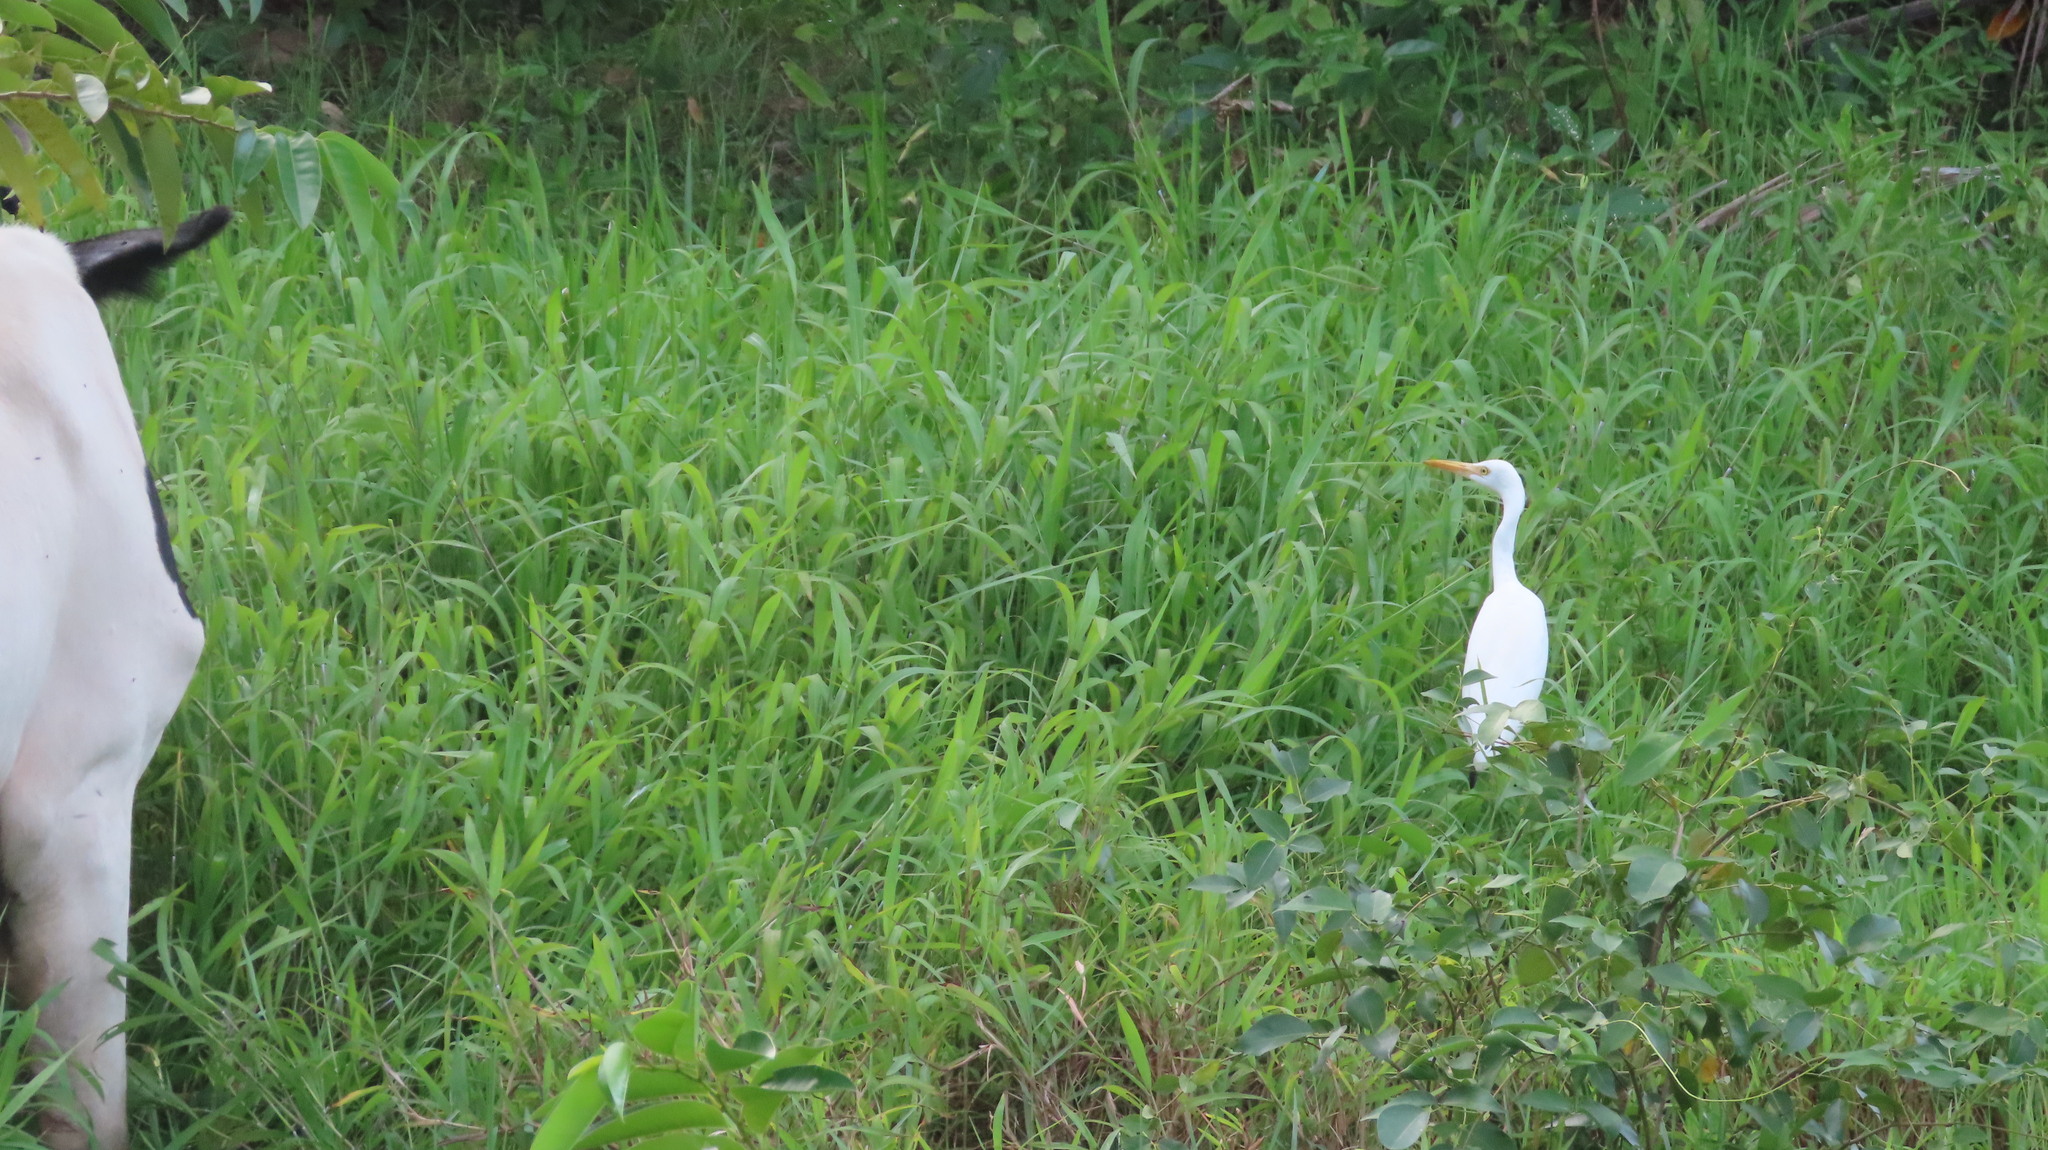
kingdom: Animalia
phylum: Chordata
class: Aves
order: Pelecaniformes
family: Ardeidae
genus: Bubulcus
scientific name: Bubulcus coromandus
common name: Eastern cattle egret
